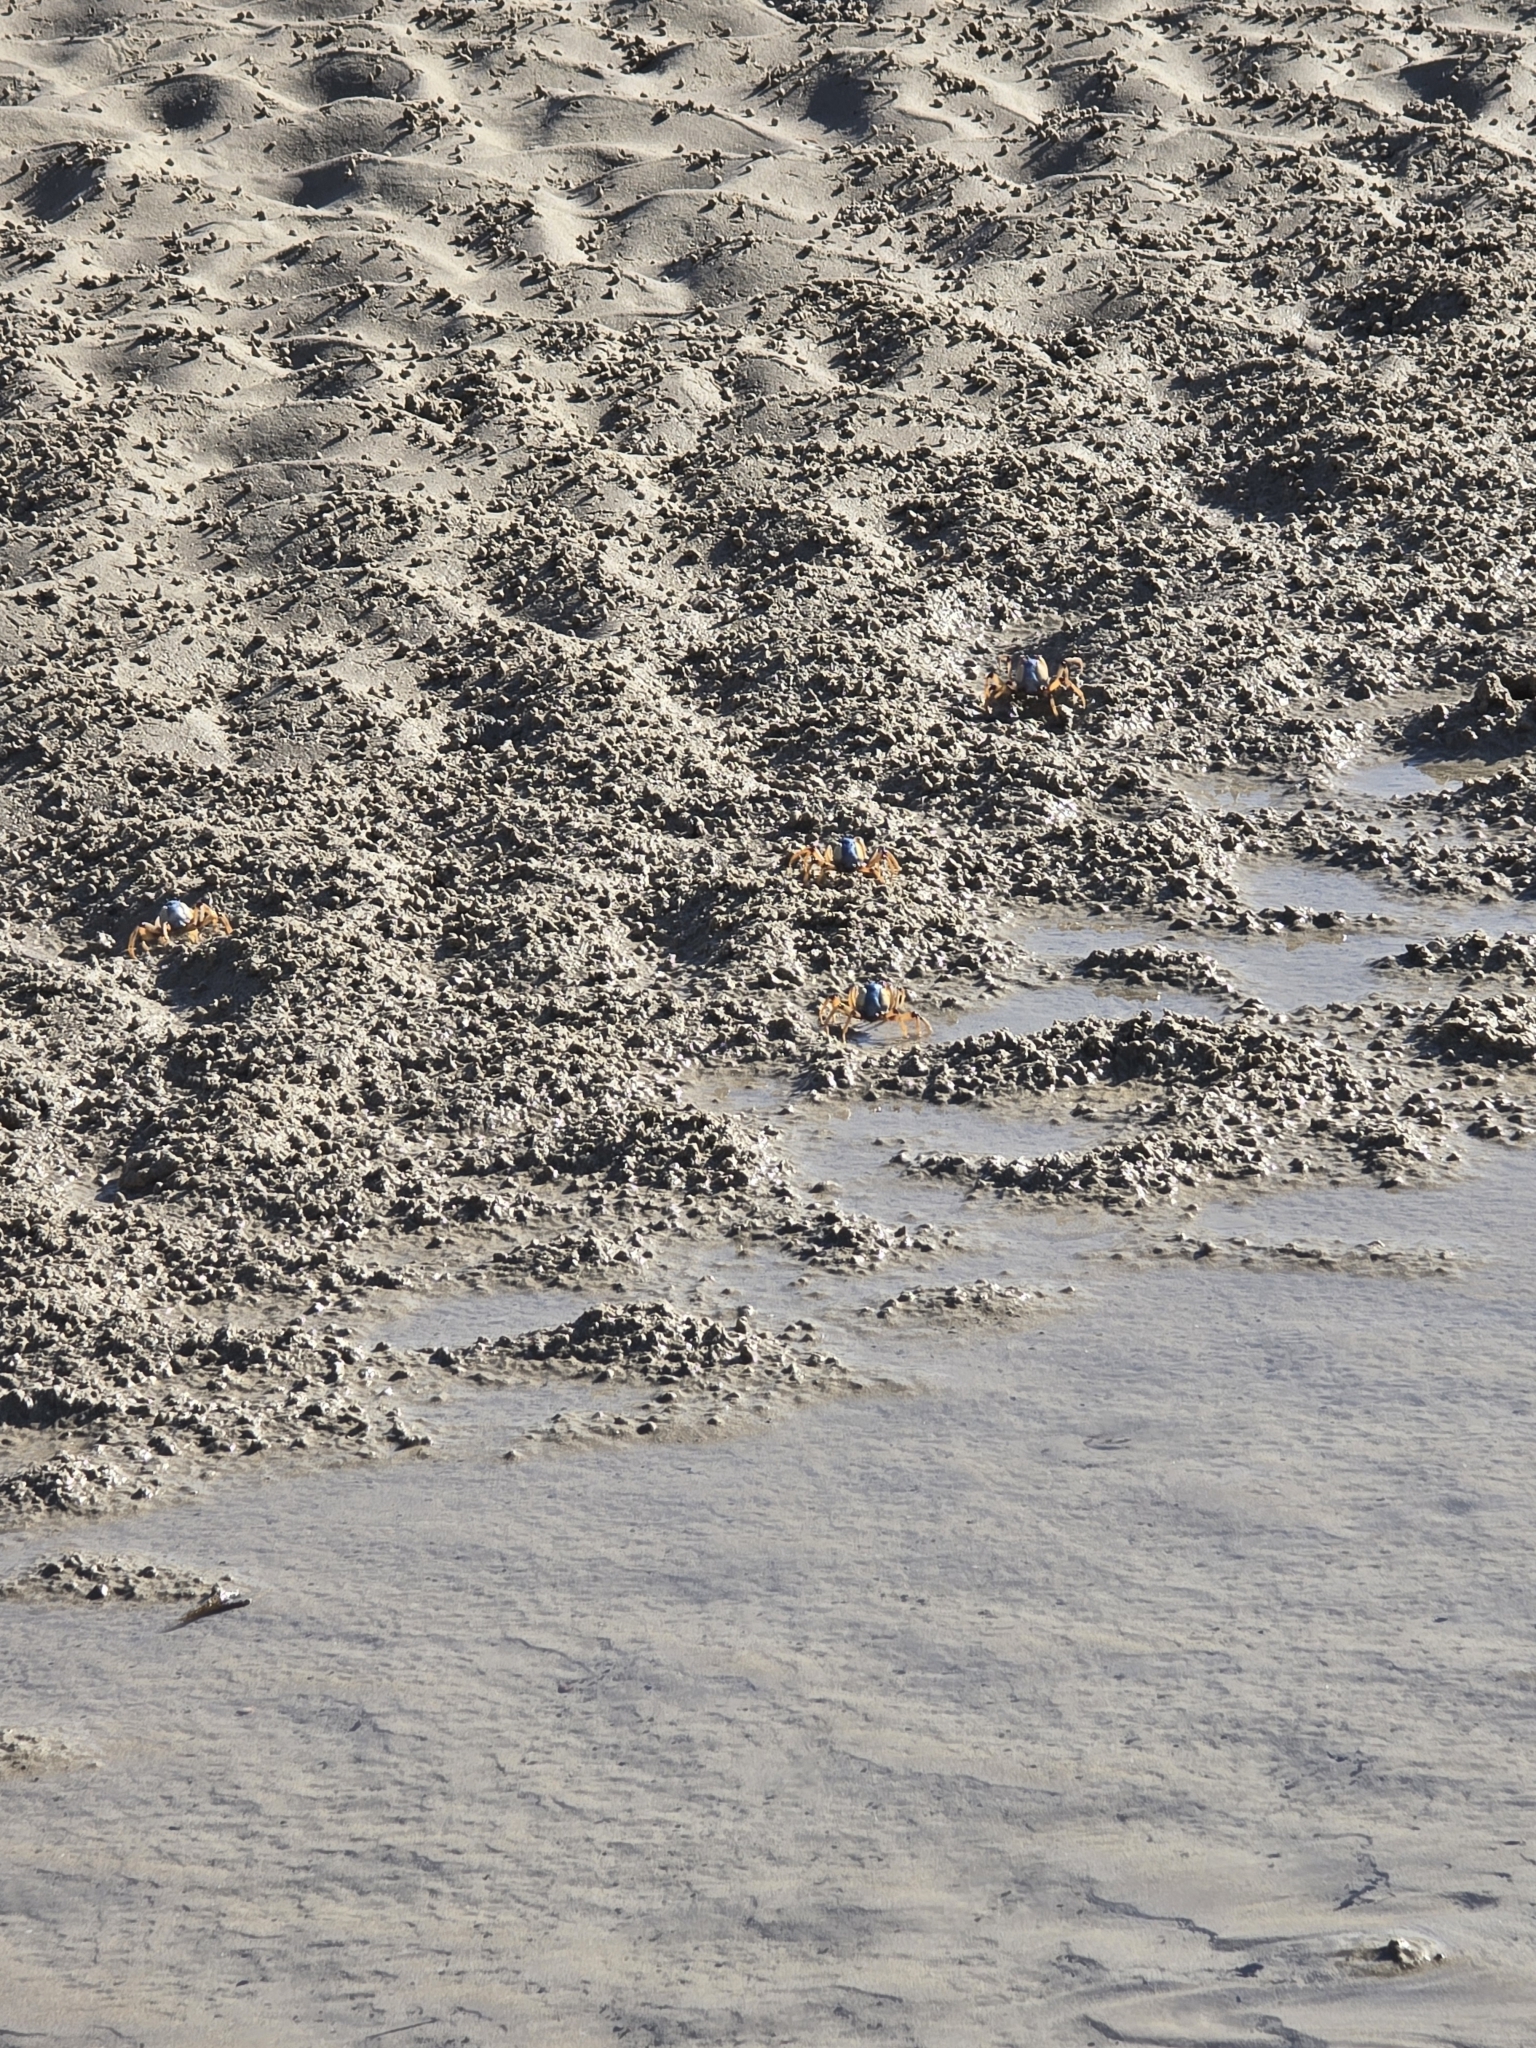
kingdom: Animalia
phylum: Arthropoda
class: Malacostraca
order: Decapoda
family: Mictyridae
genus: Mictyris
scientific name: Mictyris longicarpus
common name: Light-blue soldier crab
